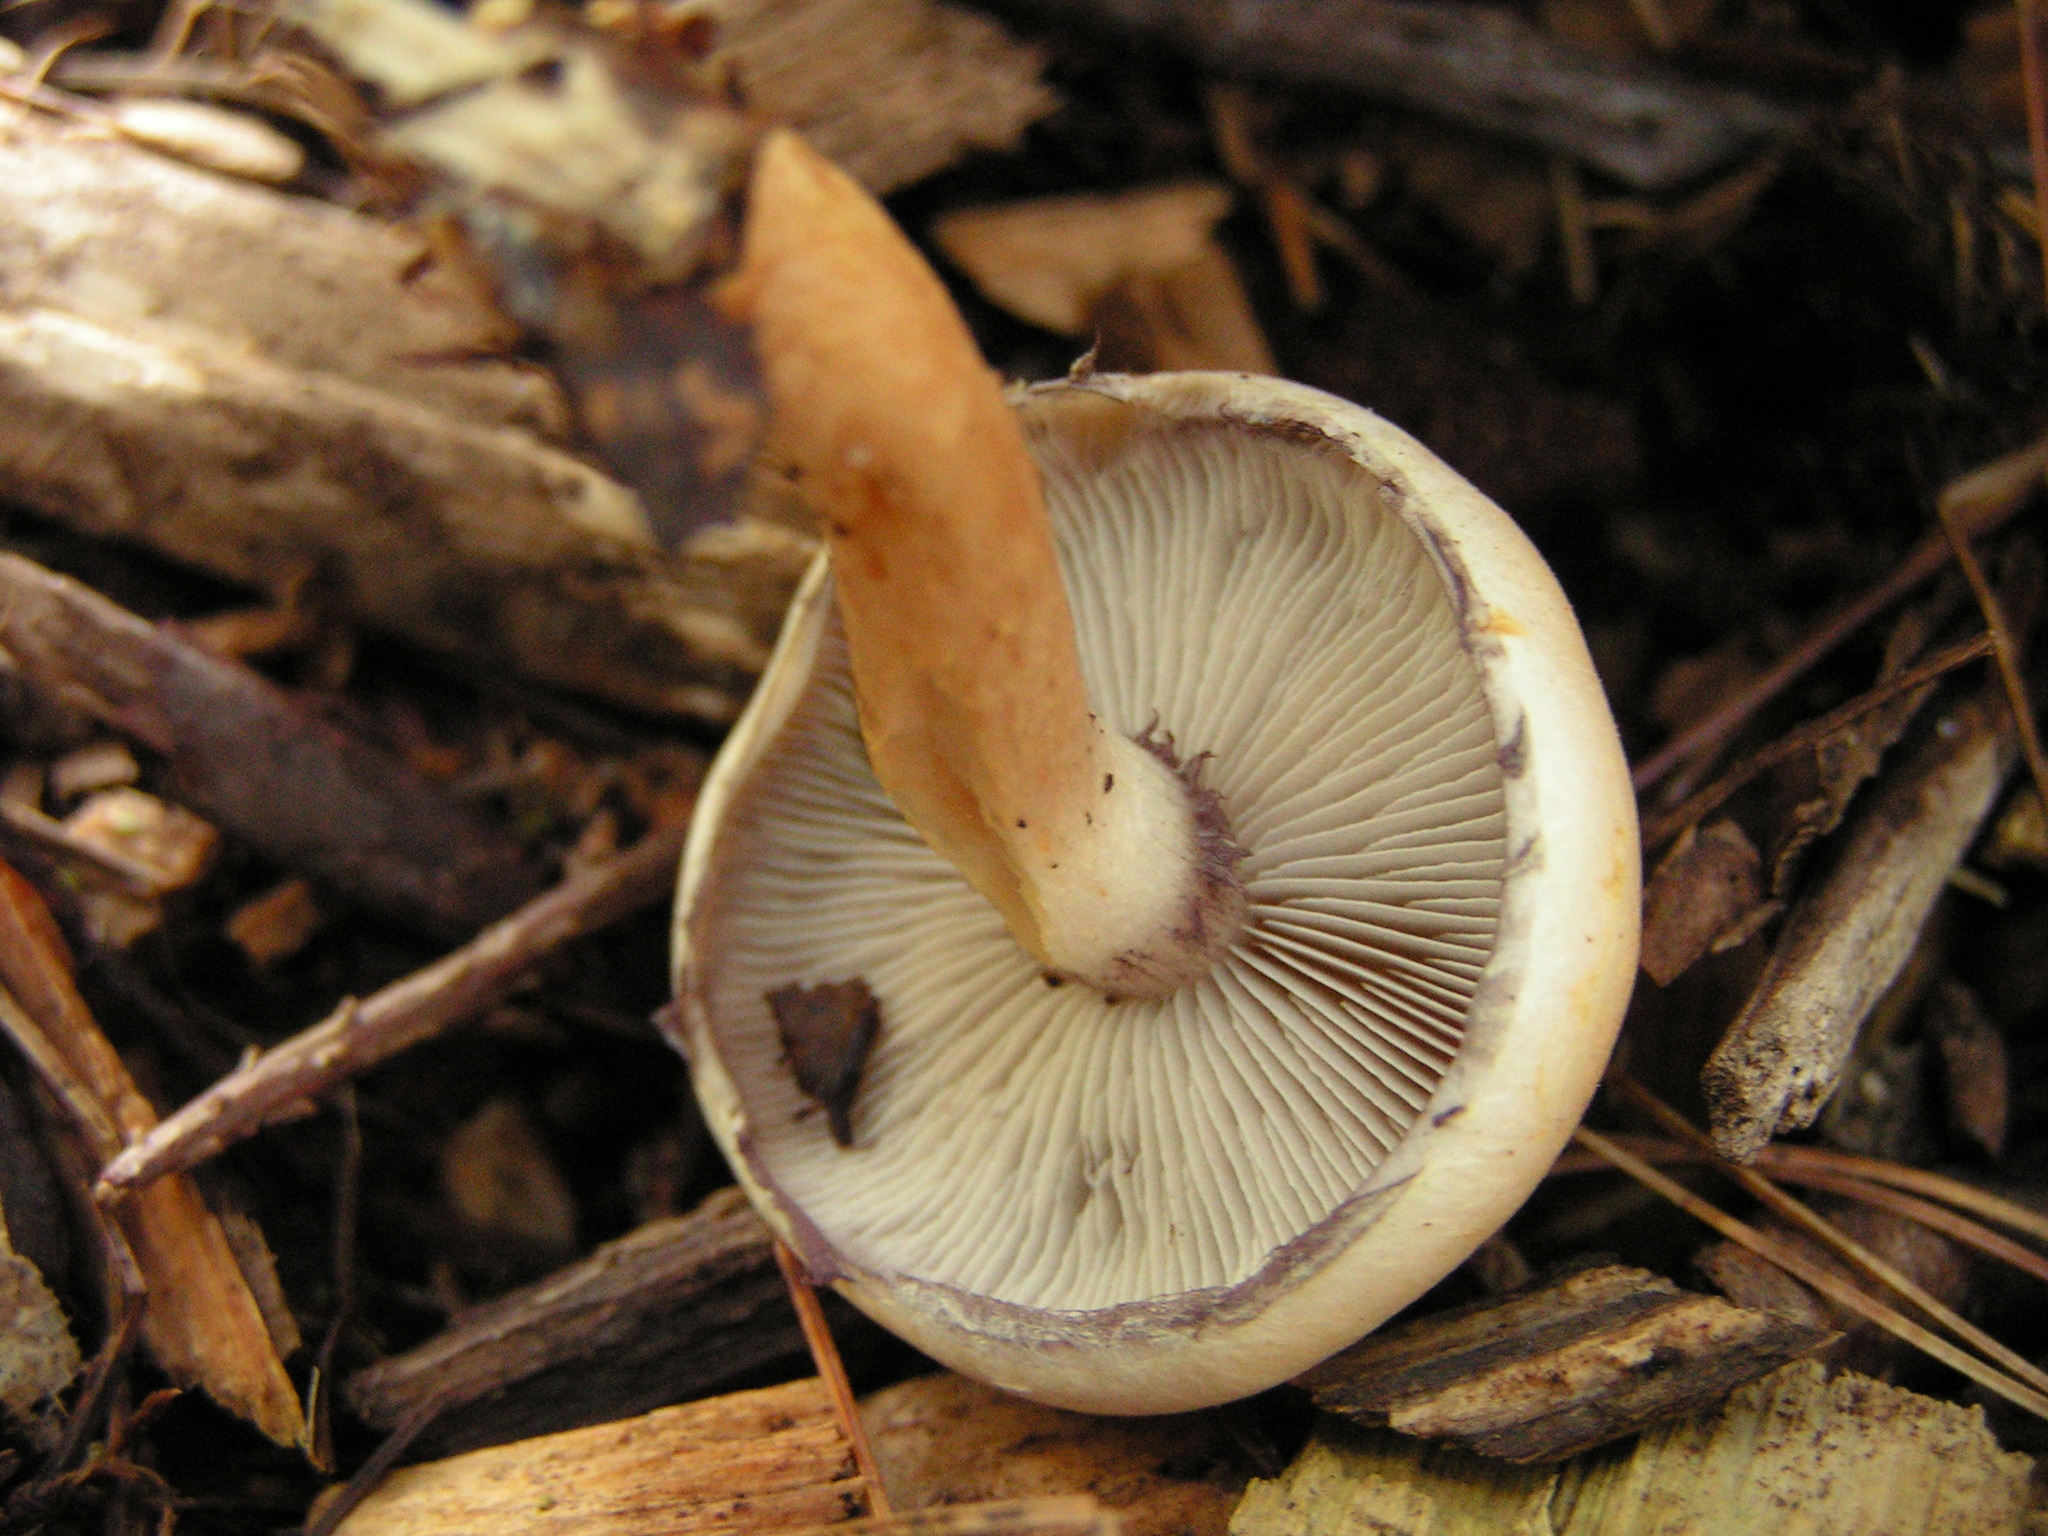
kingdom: Fungi
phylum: Basidiomycota
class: Agaricomycetes
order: Agaricales
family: Strophariaceae
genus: Hypholoma
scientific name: Hypholoma capnoides
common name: Conifer tuft
